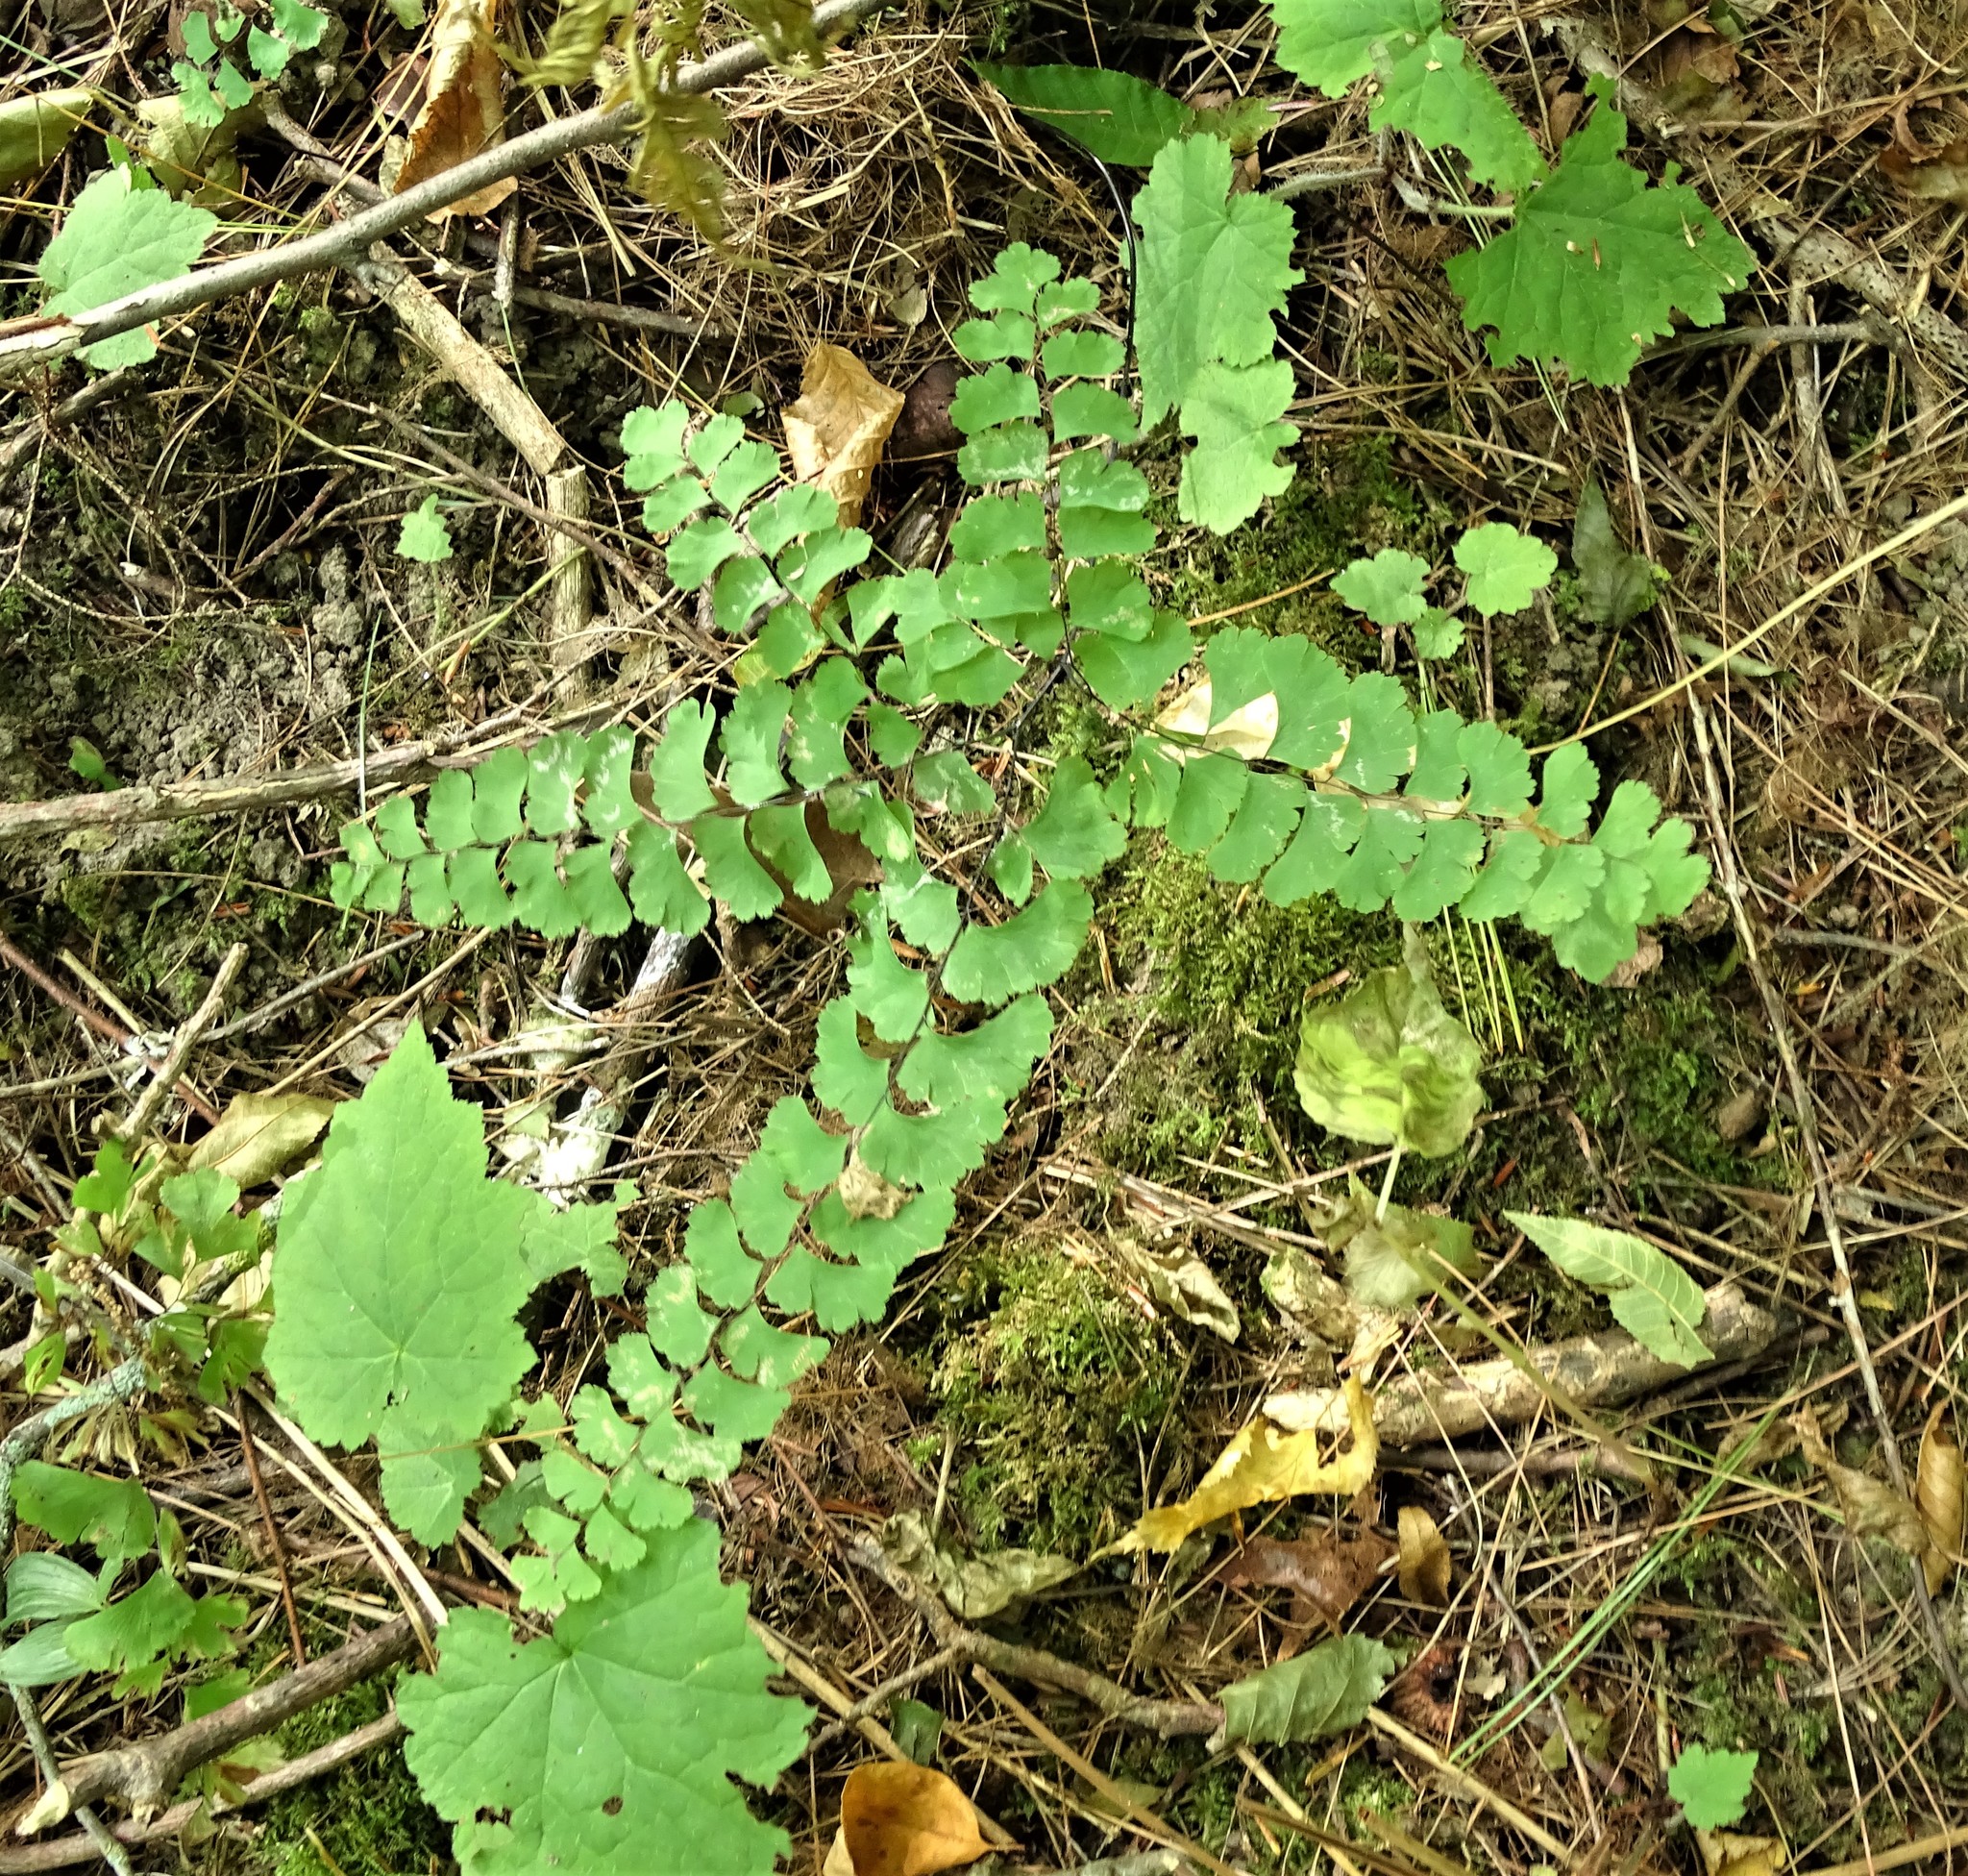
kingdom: Plantae
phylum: Tracheophyta
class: Polypodiopsida
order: Polypodiales
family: Pteridaceae
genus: Adiantum
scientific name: Adiantum pedatum
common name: Five-finger fern
